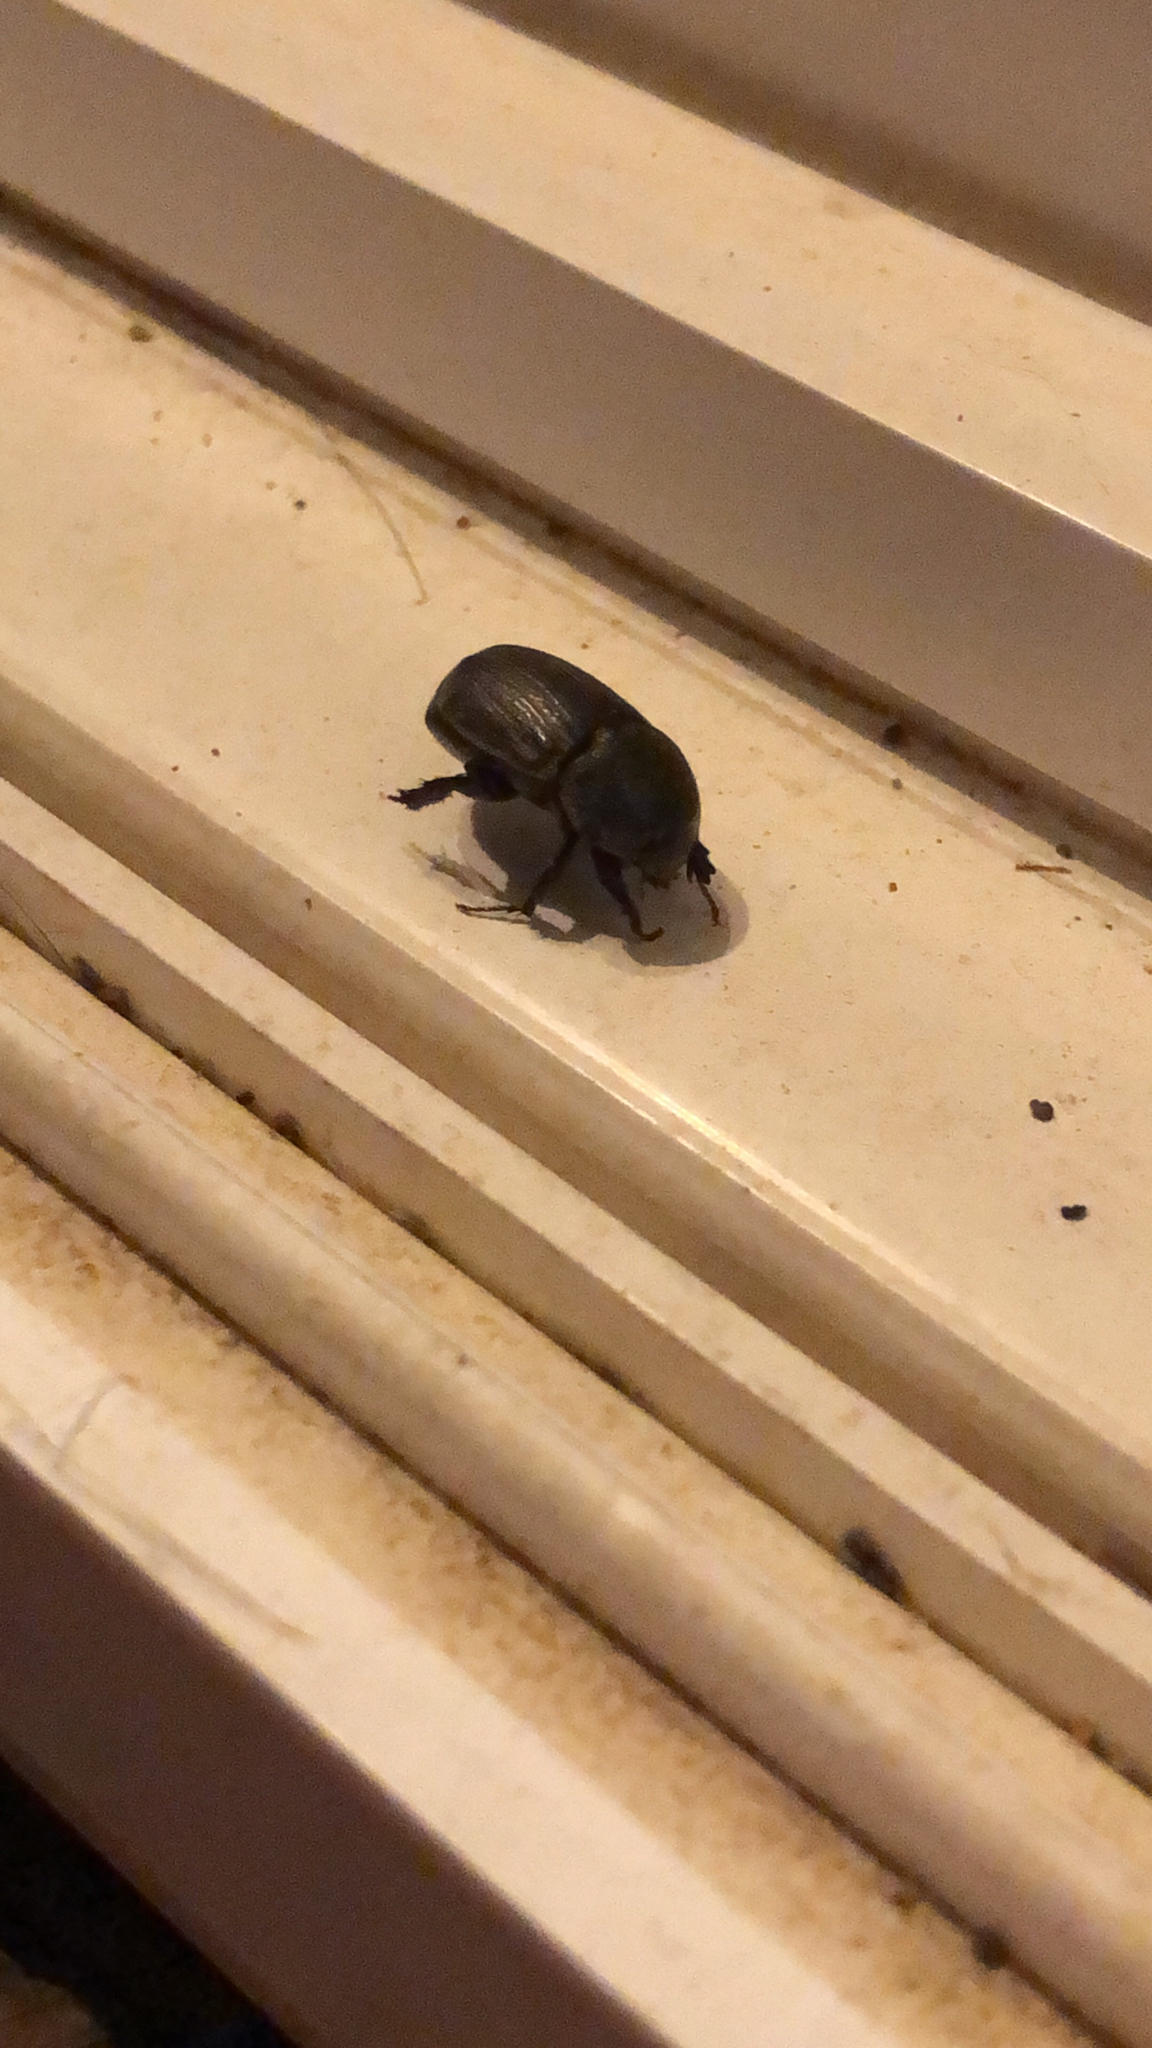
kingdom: Animalia
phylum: Arthropoda
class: Insecta
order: Coleoptera
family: Scarabaeidae
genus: Euetheola
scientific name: Euetheola humilis
